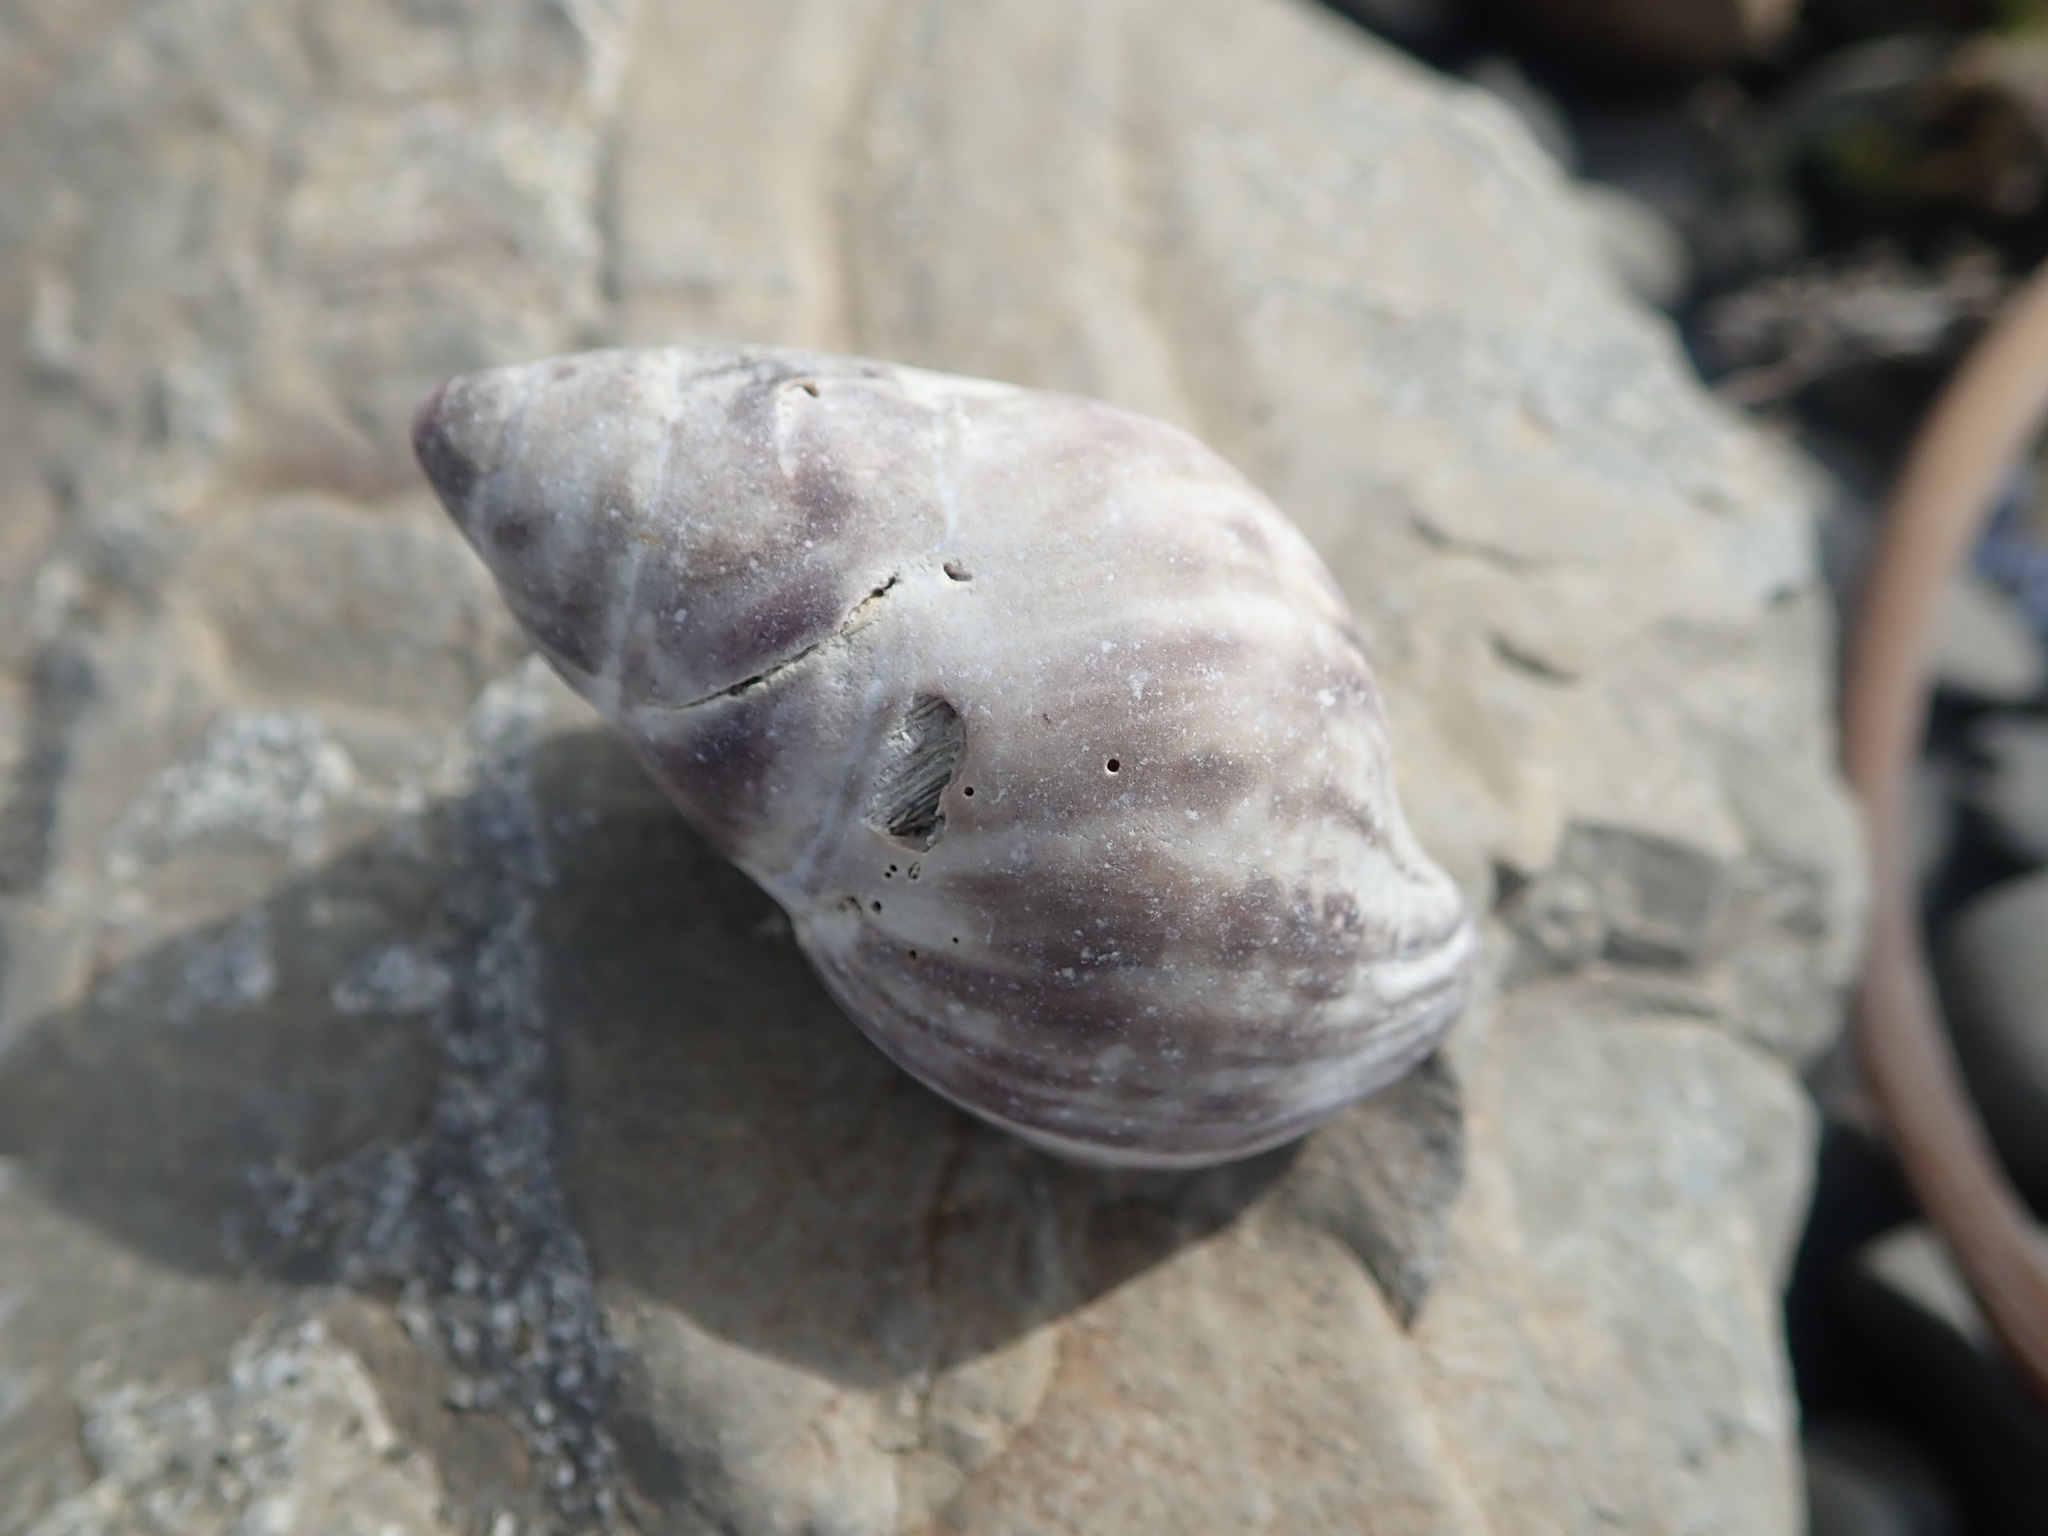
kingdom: Animalia
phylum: Mollusca
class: Gastropoda
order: Neogastropoda
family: Muricidae
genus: Nucella
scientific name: Nucella lamellosa
